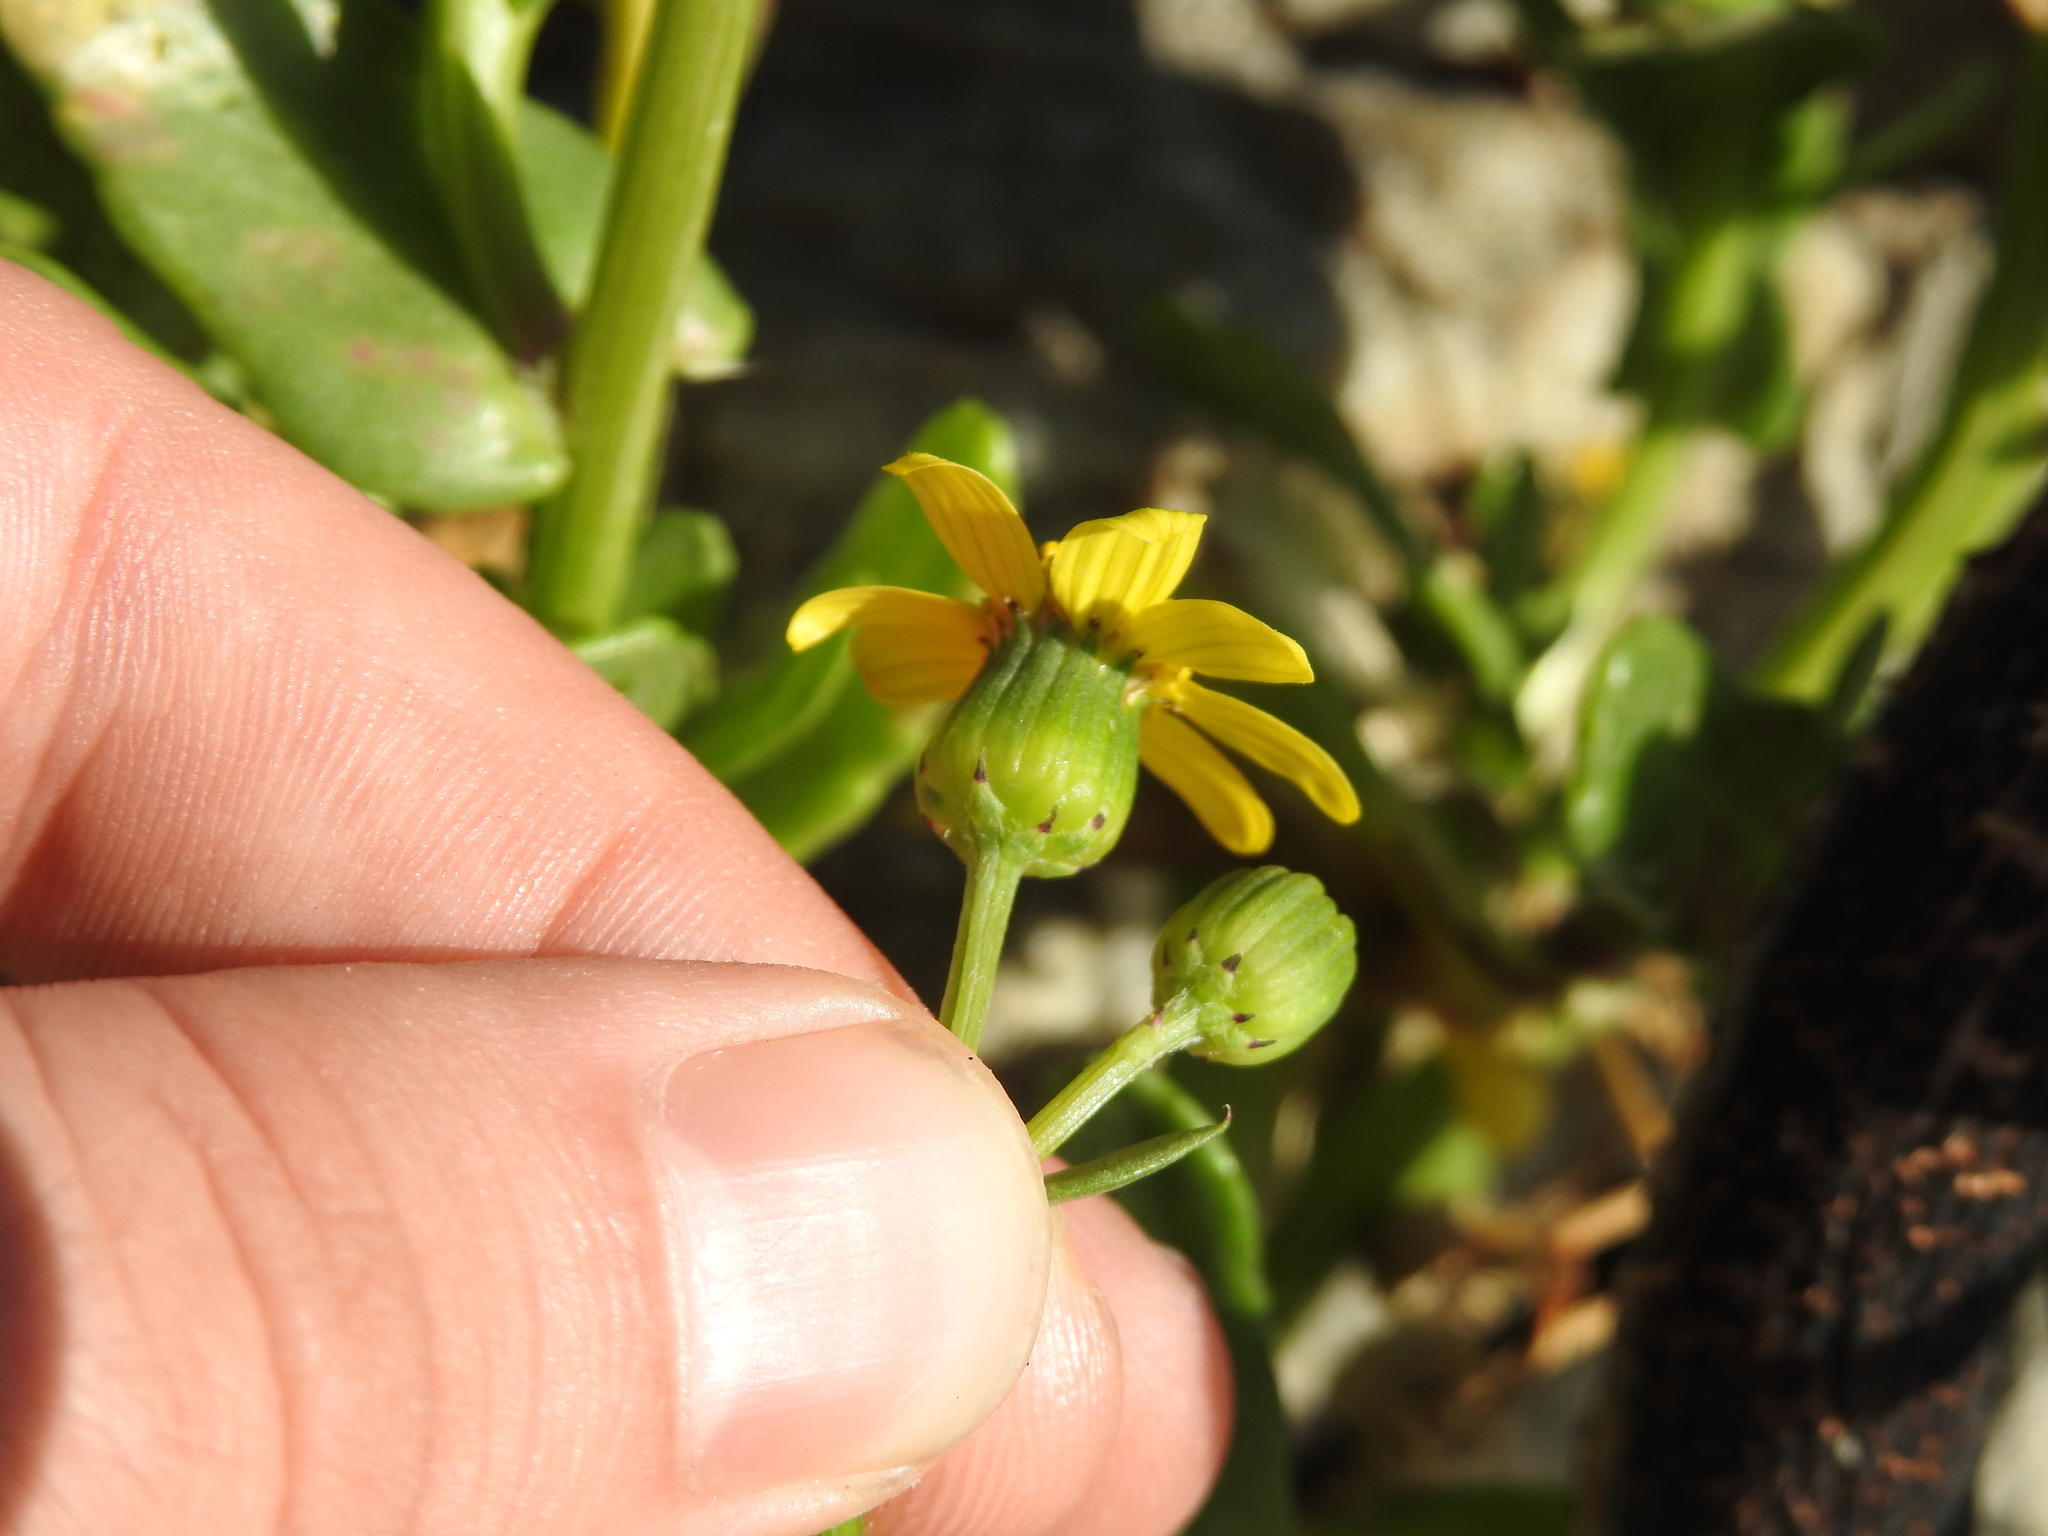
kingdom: Plantae
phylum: Tracheophyta
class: Magnoliopsida
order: Asterales
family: Asteraceae
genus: Senecio
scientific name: Senecio maritimus
